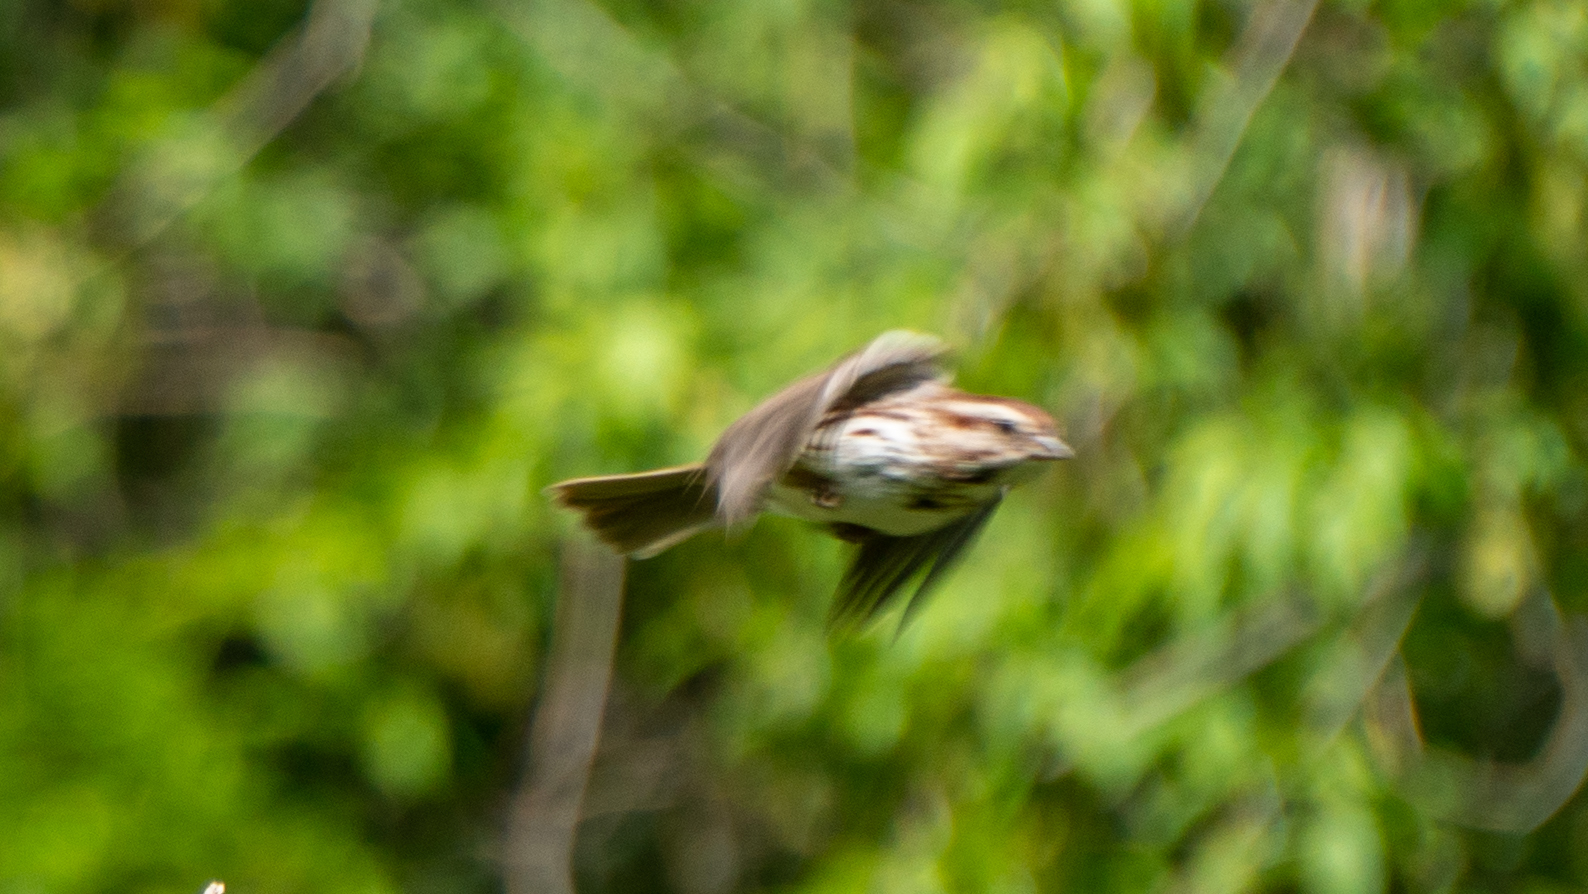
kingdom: Animalia
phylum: Chordata
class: Aves
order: Passeriformes
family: Passerellidae
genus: Melospiza
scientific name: Melospiza melodia
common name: Song sparrow
